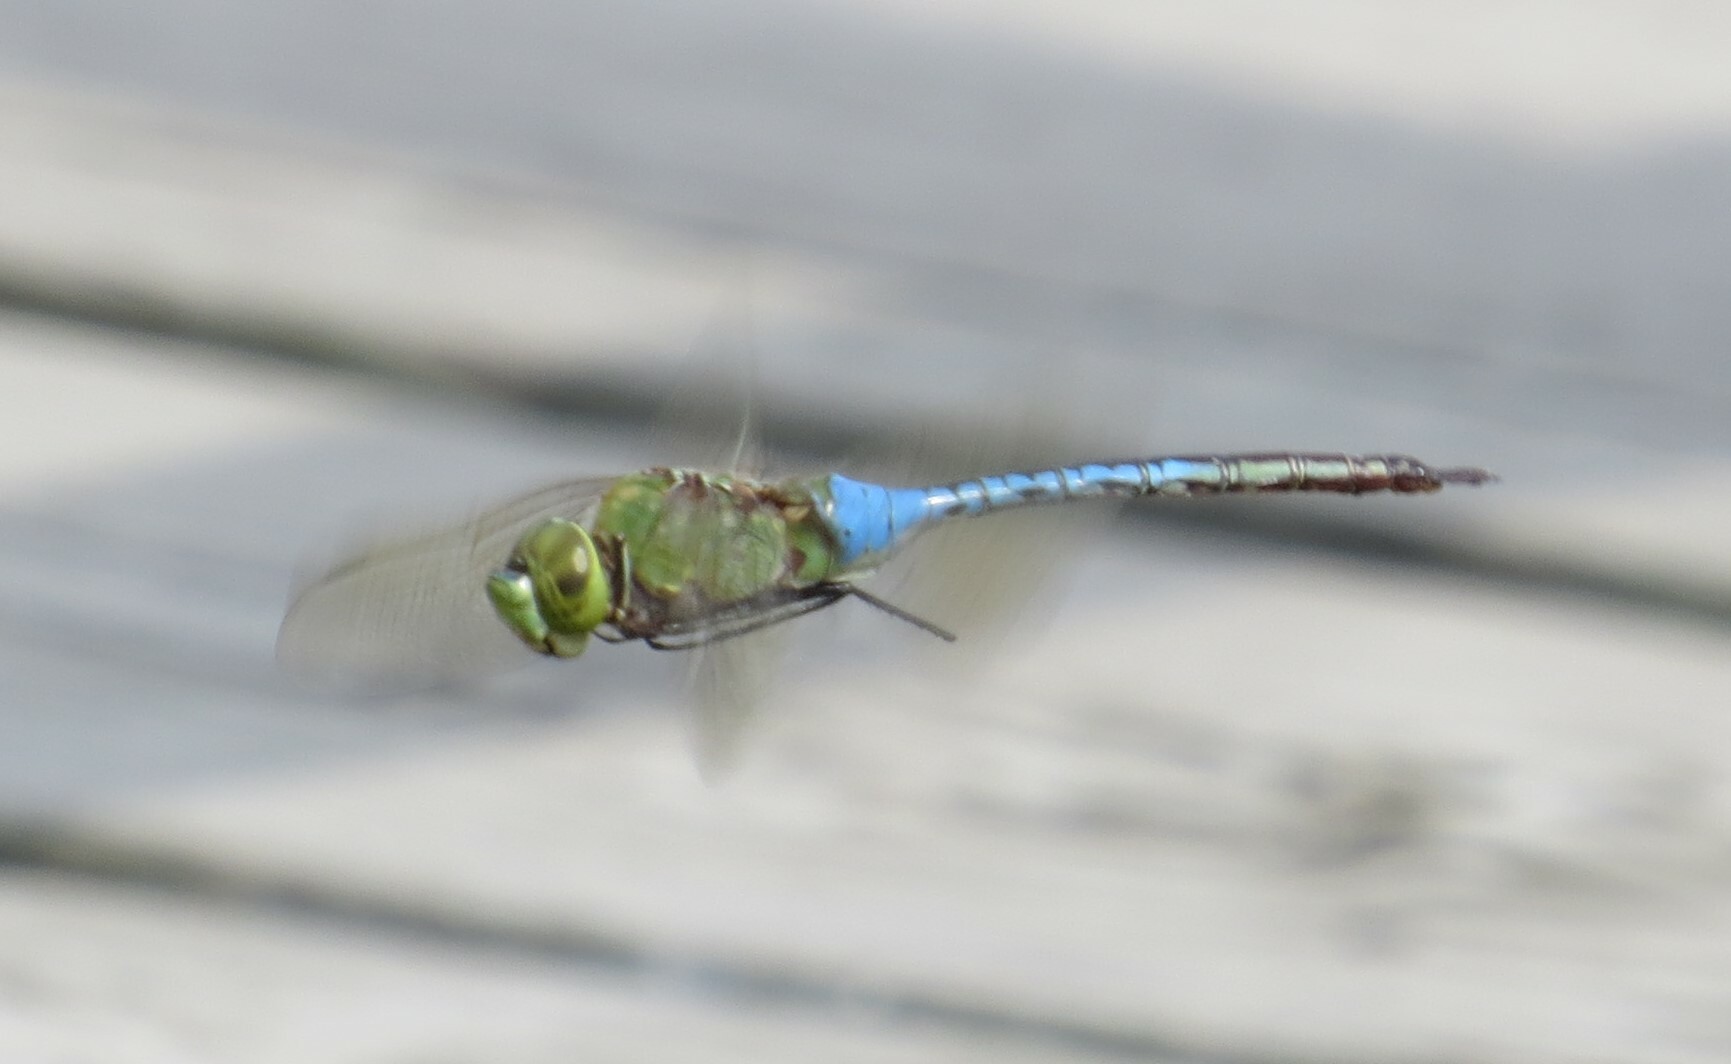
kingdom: Animalia
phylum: Arthropoda
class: Insecta
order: Odonata
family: Aeshnidae
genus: Anax
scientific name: Anax junius
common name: Common green darner
